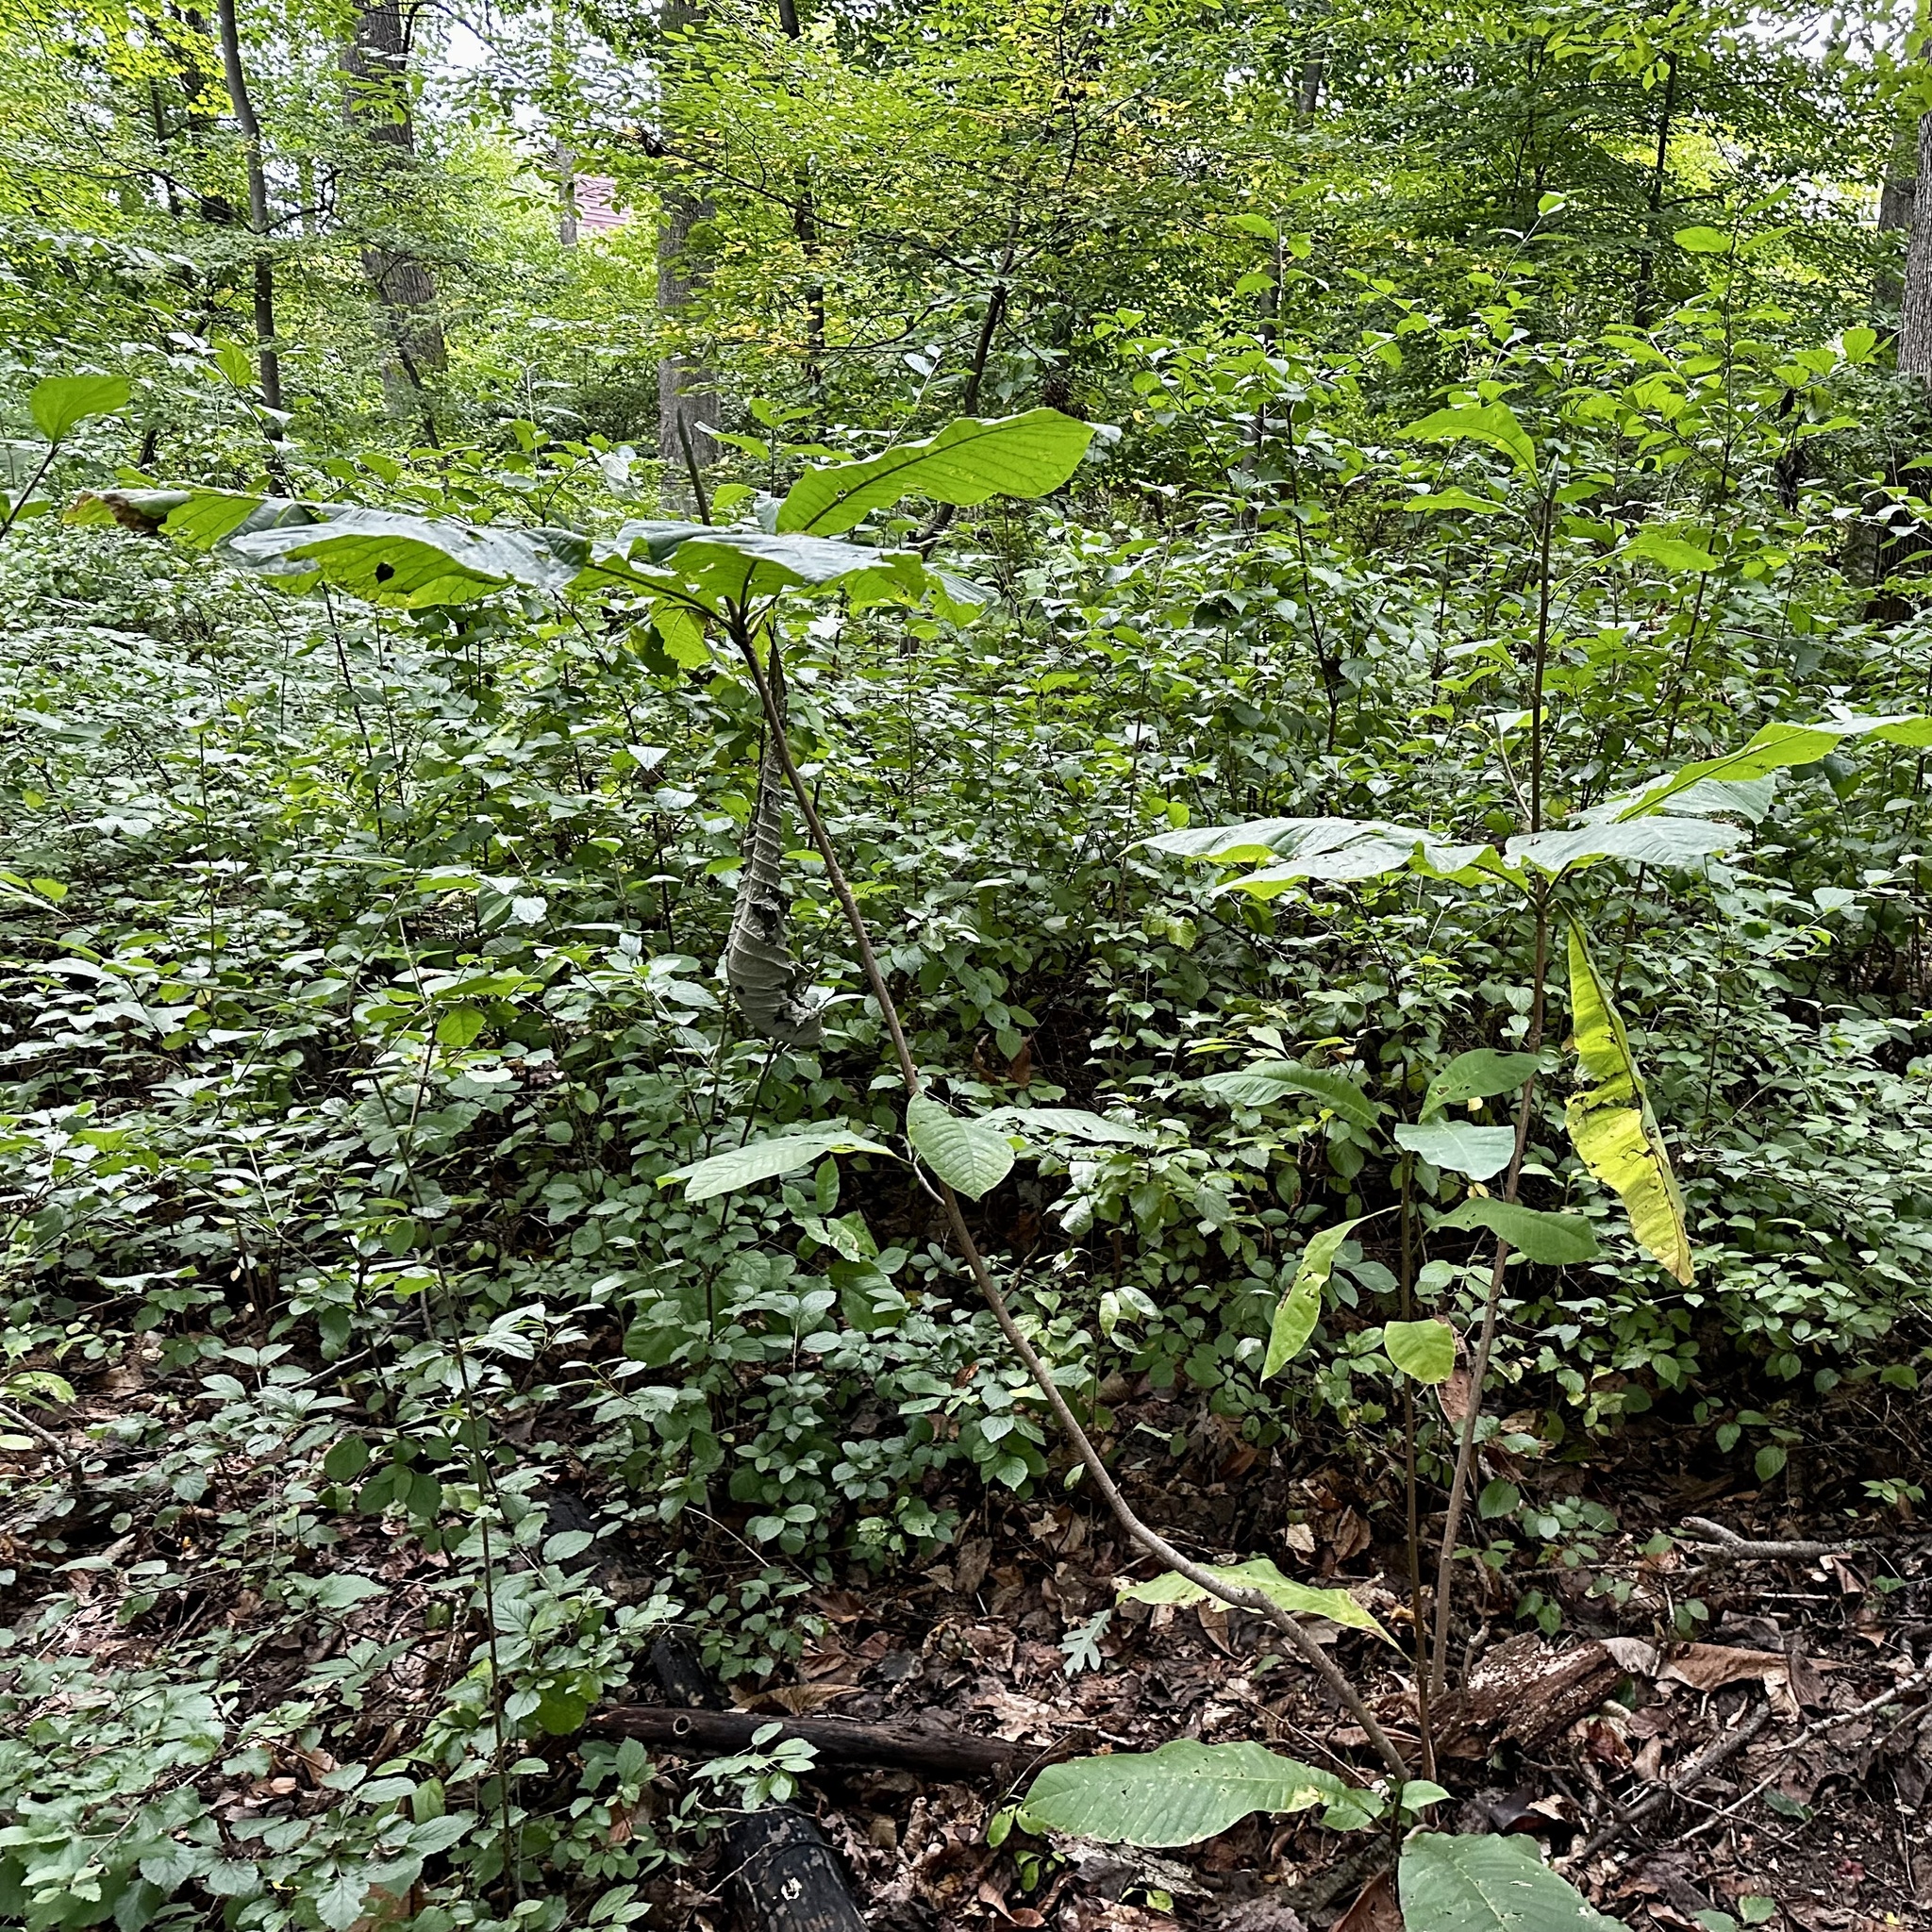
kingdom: Plantae
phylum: Tracheophyta
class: Magnoliopsida
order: Magnoliales
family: Magnoliaceae
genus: Magnolia
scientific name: Magnolia tripetala
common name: Umbrella magnolia
